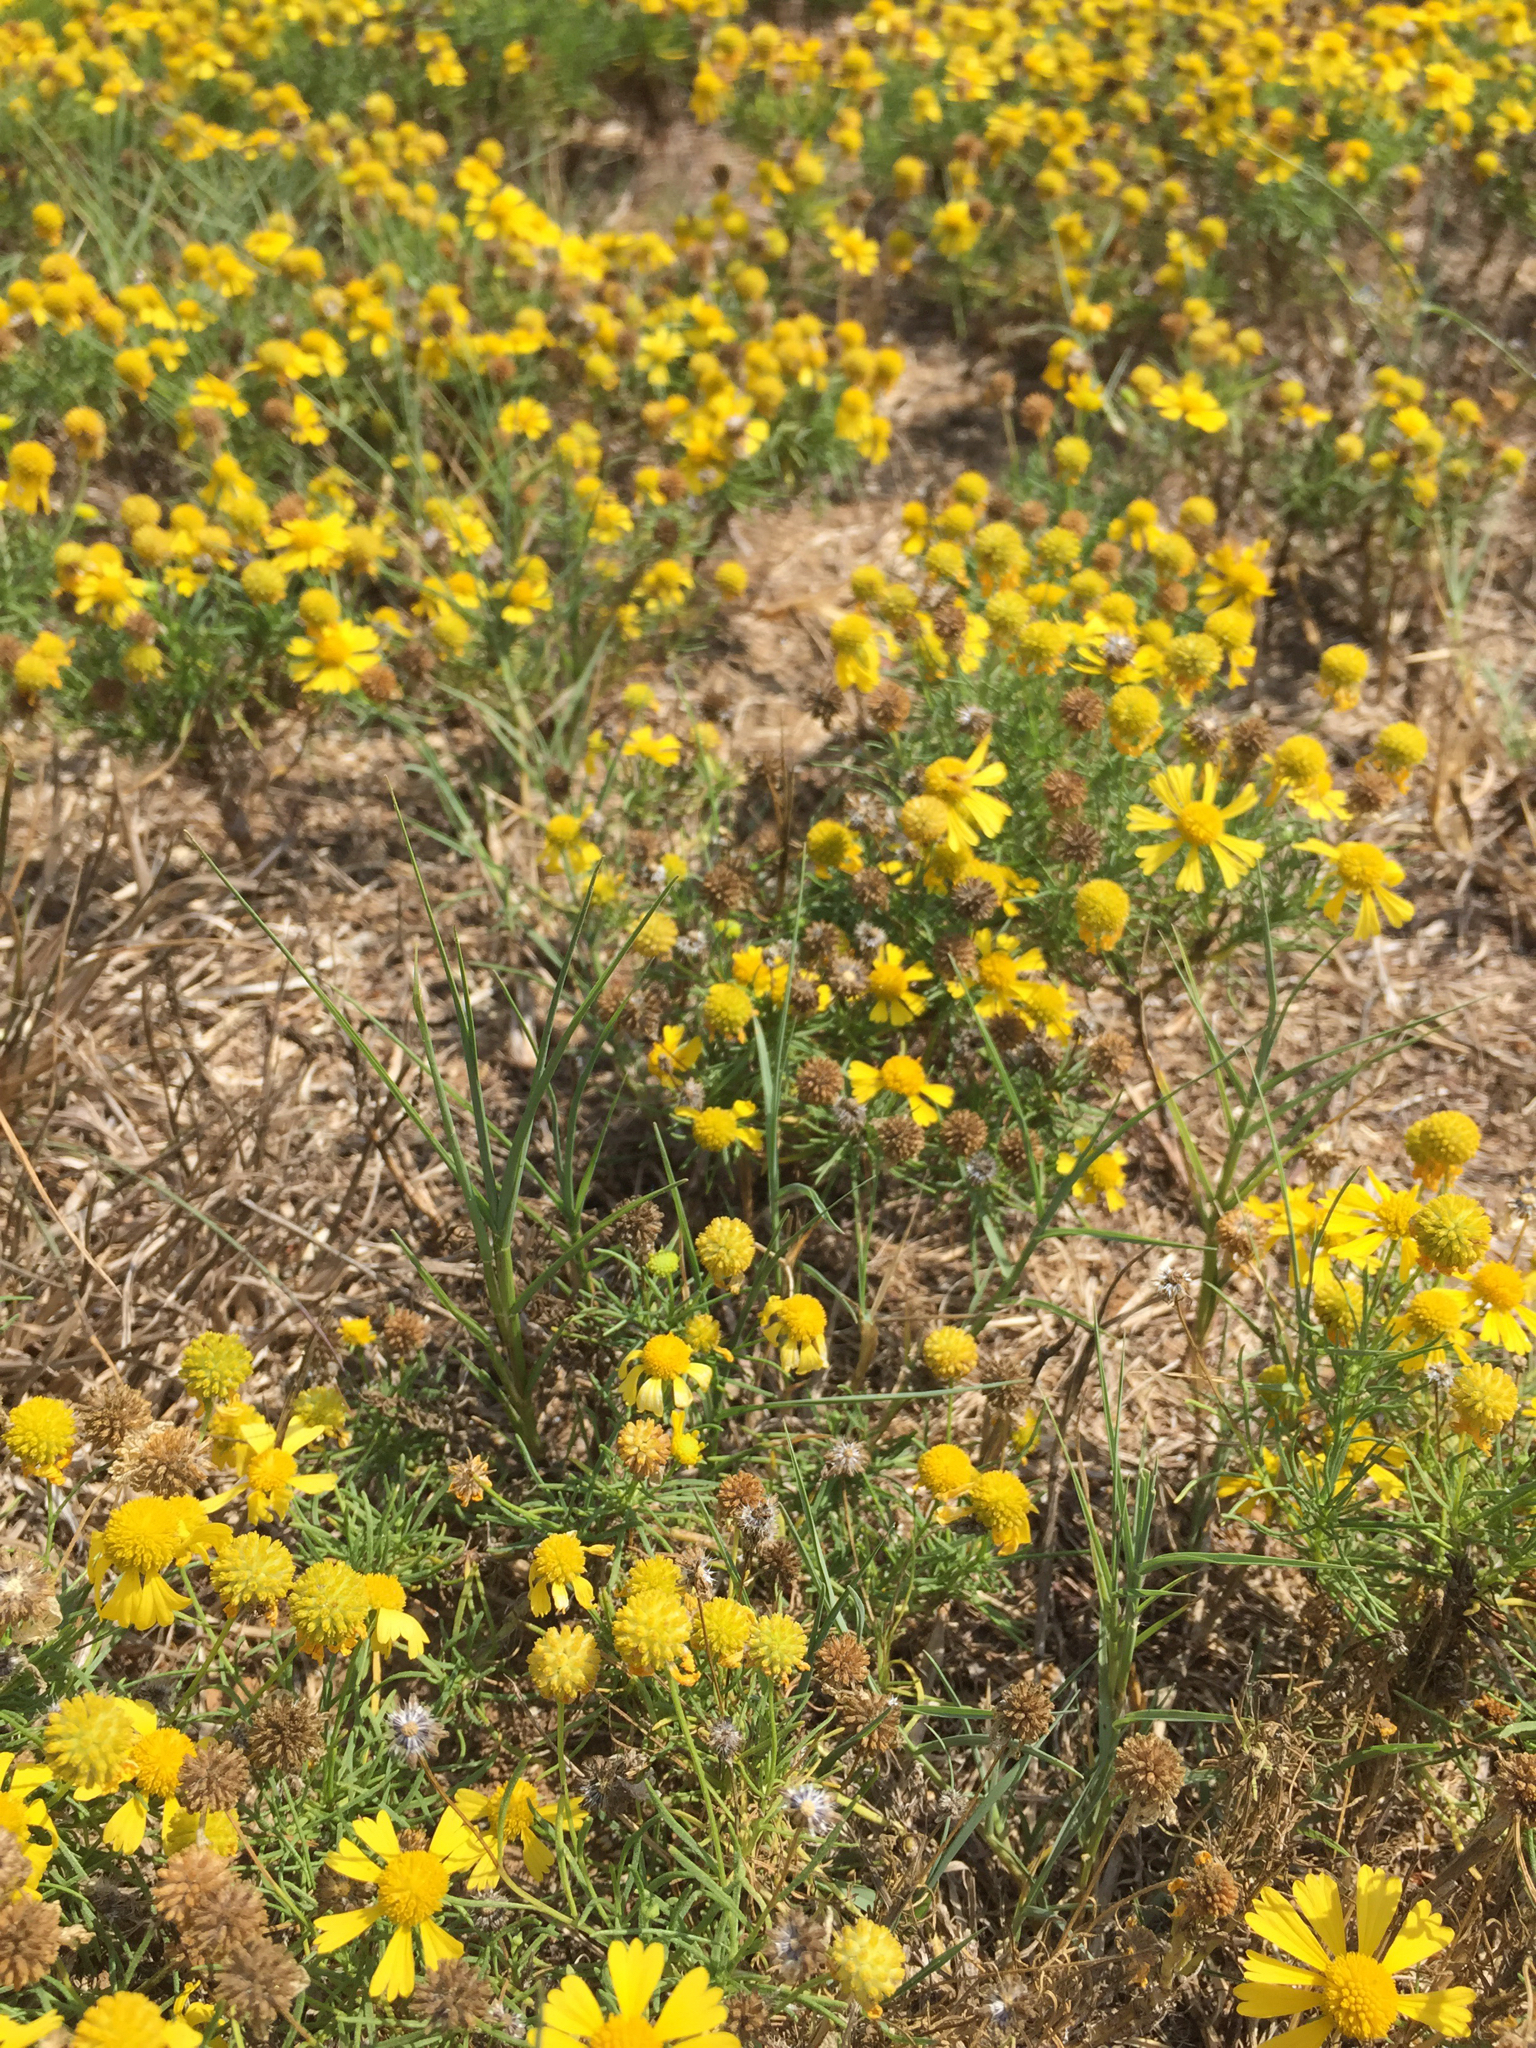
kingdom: Plantae
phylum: Tracheophyta
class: Magnoliopsida
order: Asterales
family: Asteraceae
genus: Helenium
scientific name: Helenium amarum
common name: Bitter sneezeweed
